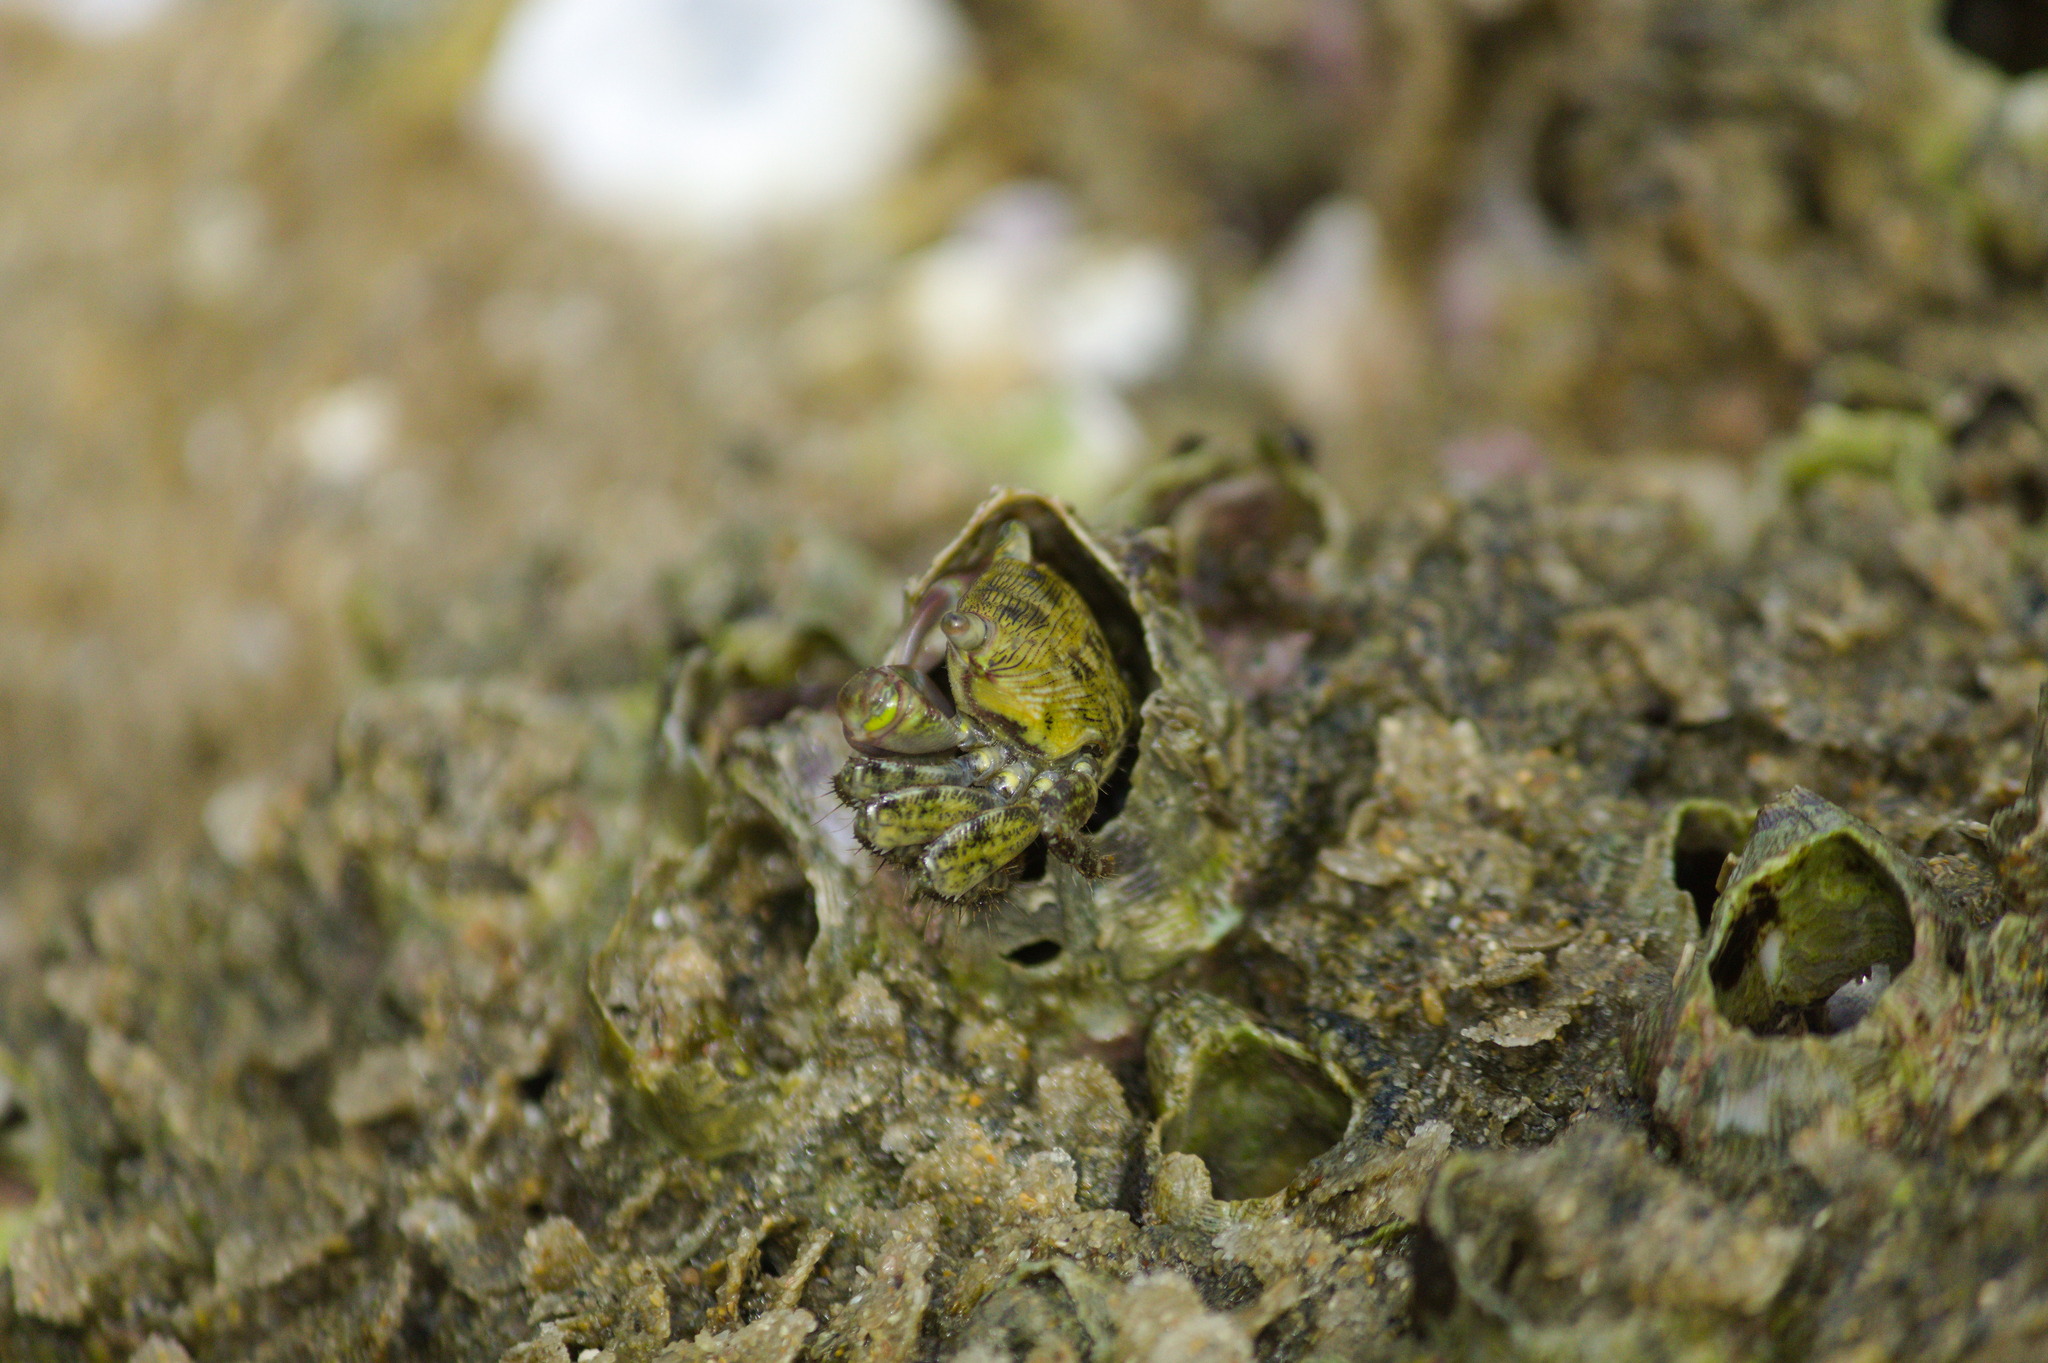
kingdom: Animalia
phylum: Arthropoda
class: Malacostraca
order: Decapoda
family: Grapsidae
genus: Pachygrapsus
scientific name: Pachygrapsus transversus
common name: Mottled shore crab
